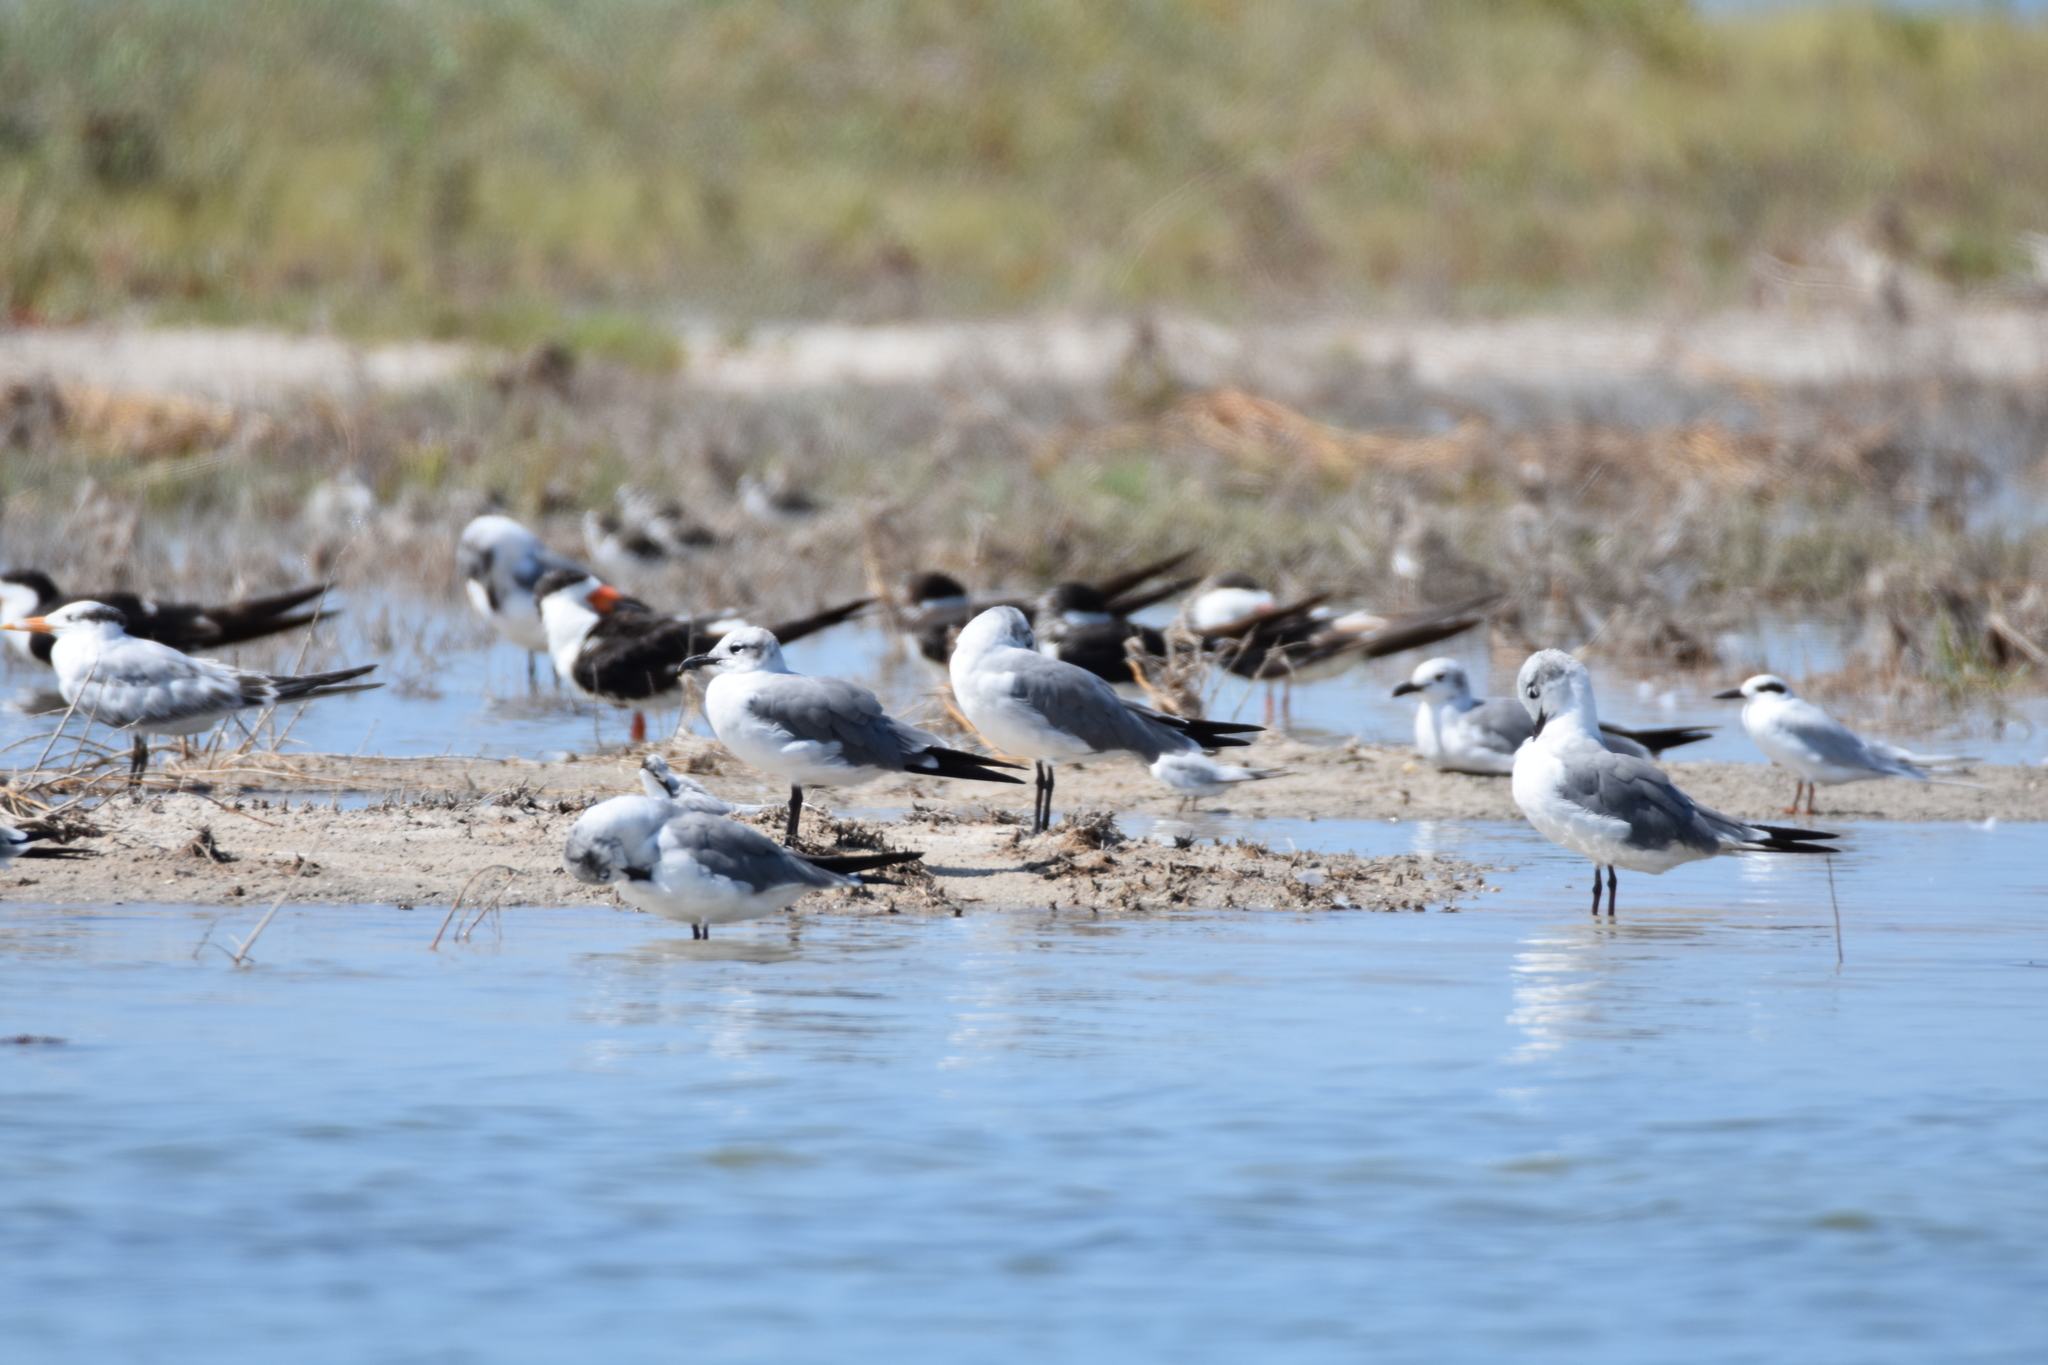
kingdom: Animalia
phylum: Chordata
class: Aves
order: Charadriiformes
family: Laridae
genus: Sterna
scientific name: Sterna forsteri
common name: Forster's tern
